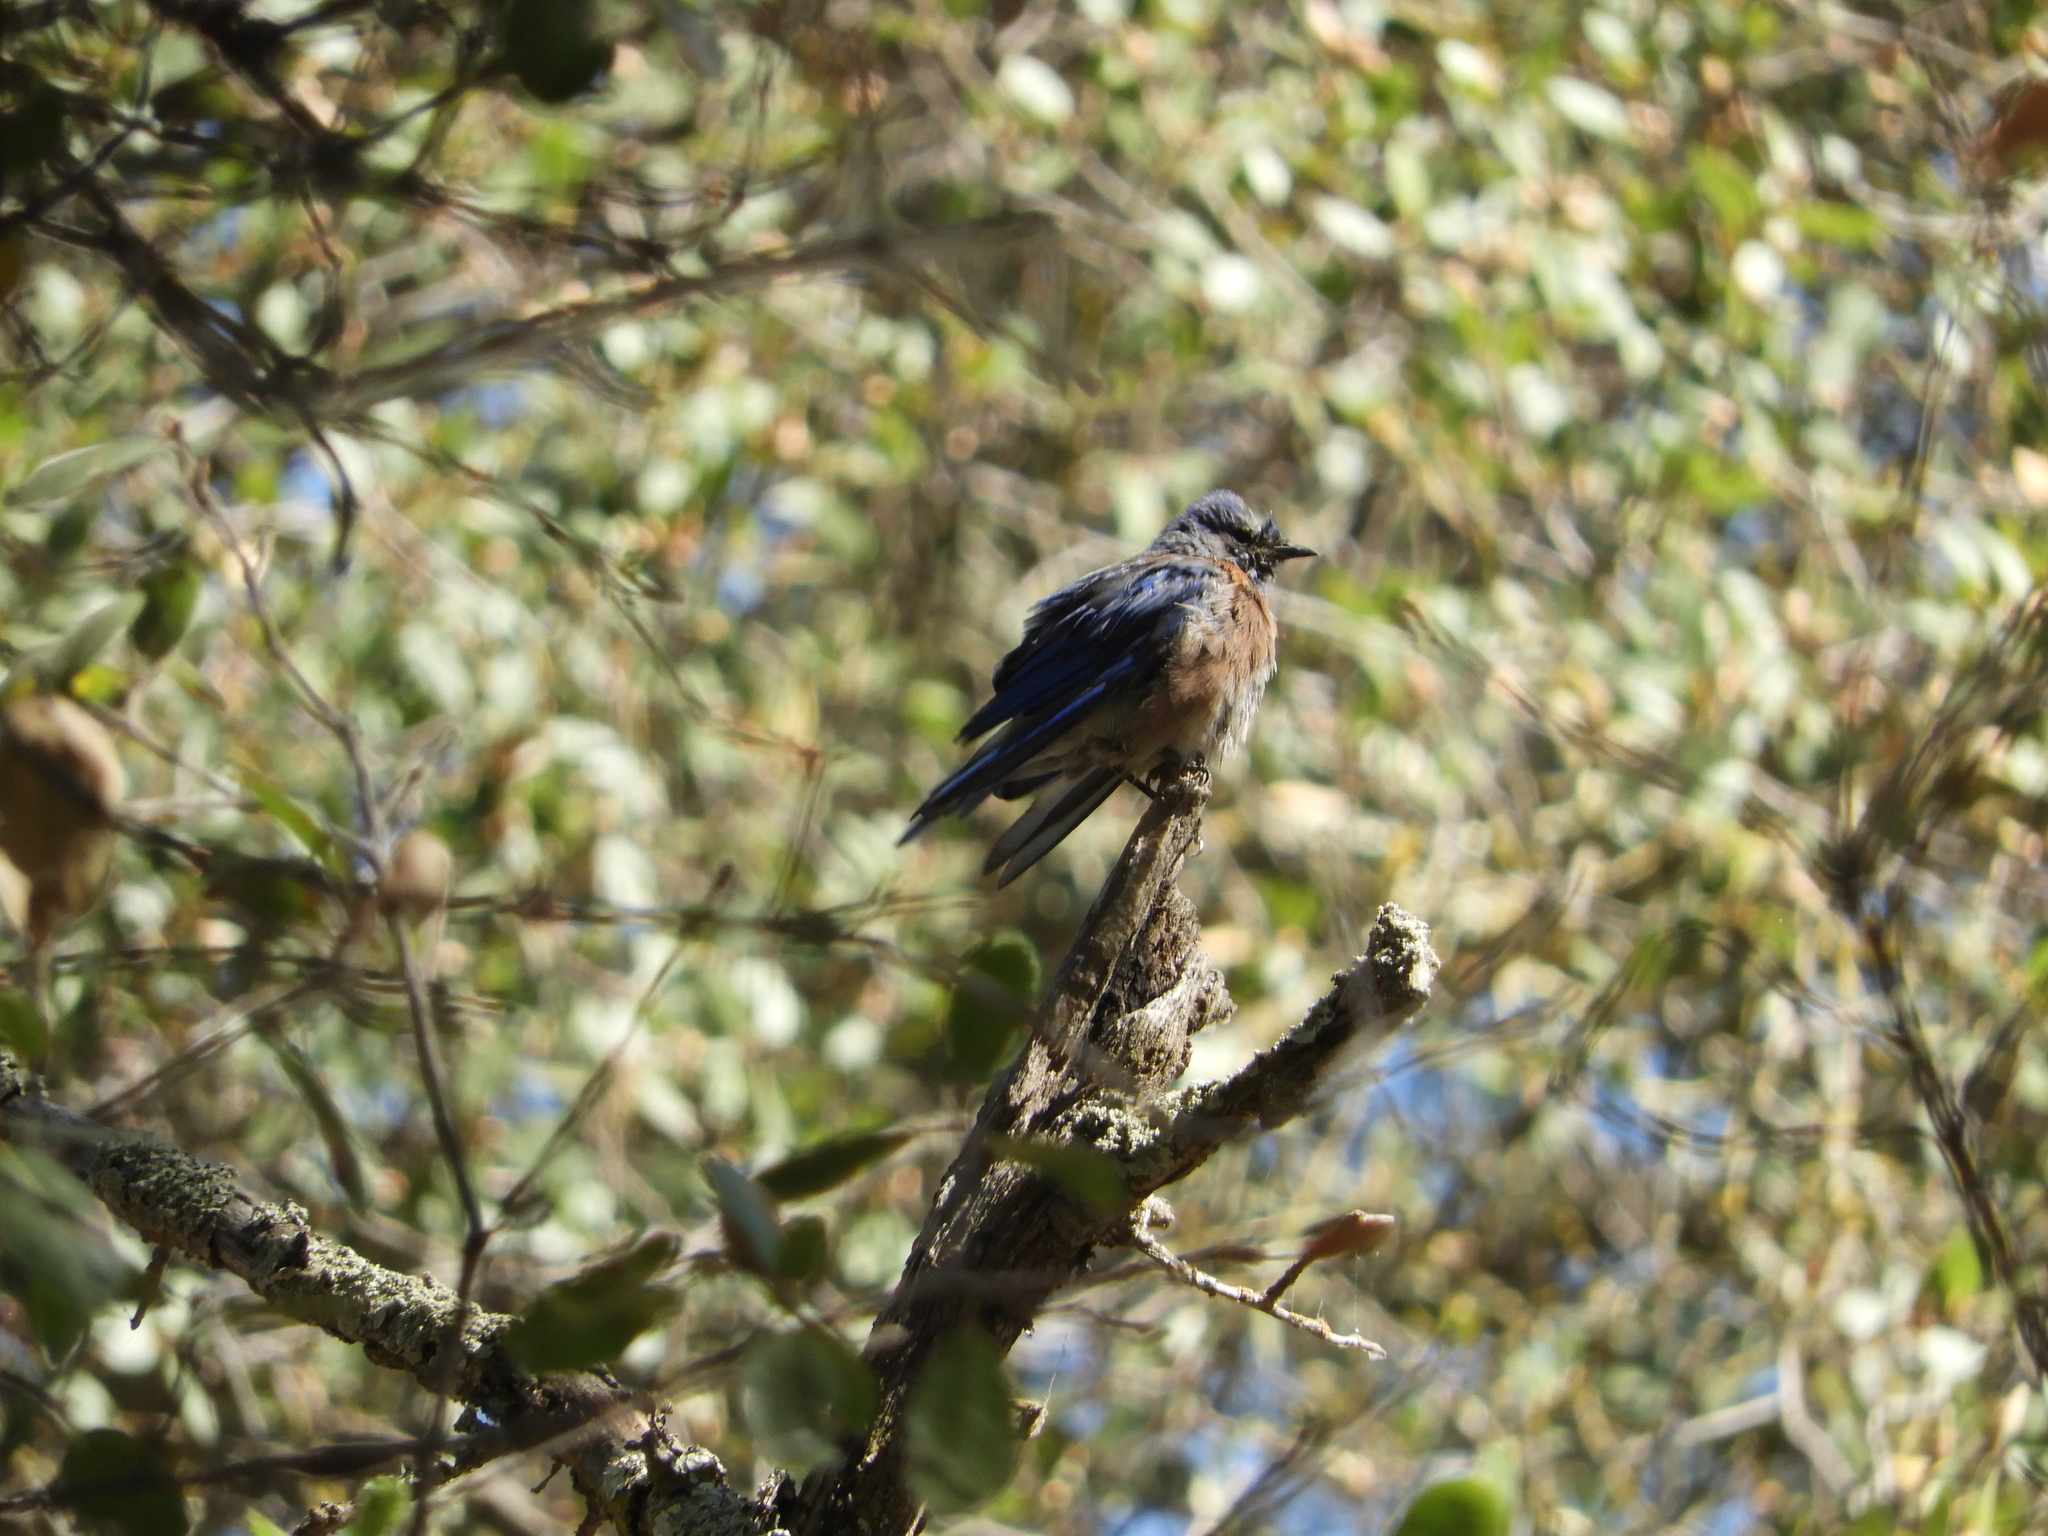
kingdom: Animalia
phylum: Chordata
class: Aves
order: Passeriformes
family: Turdidae
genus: Sialia
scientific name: Sialia mexicana
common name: Western bluebird
